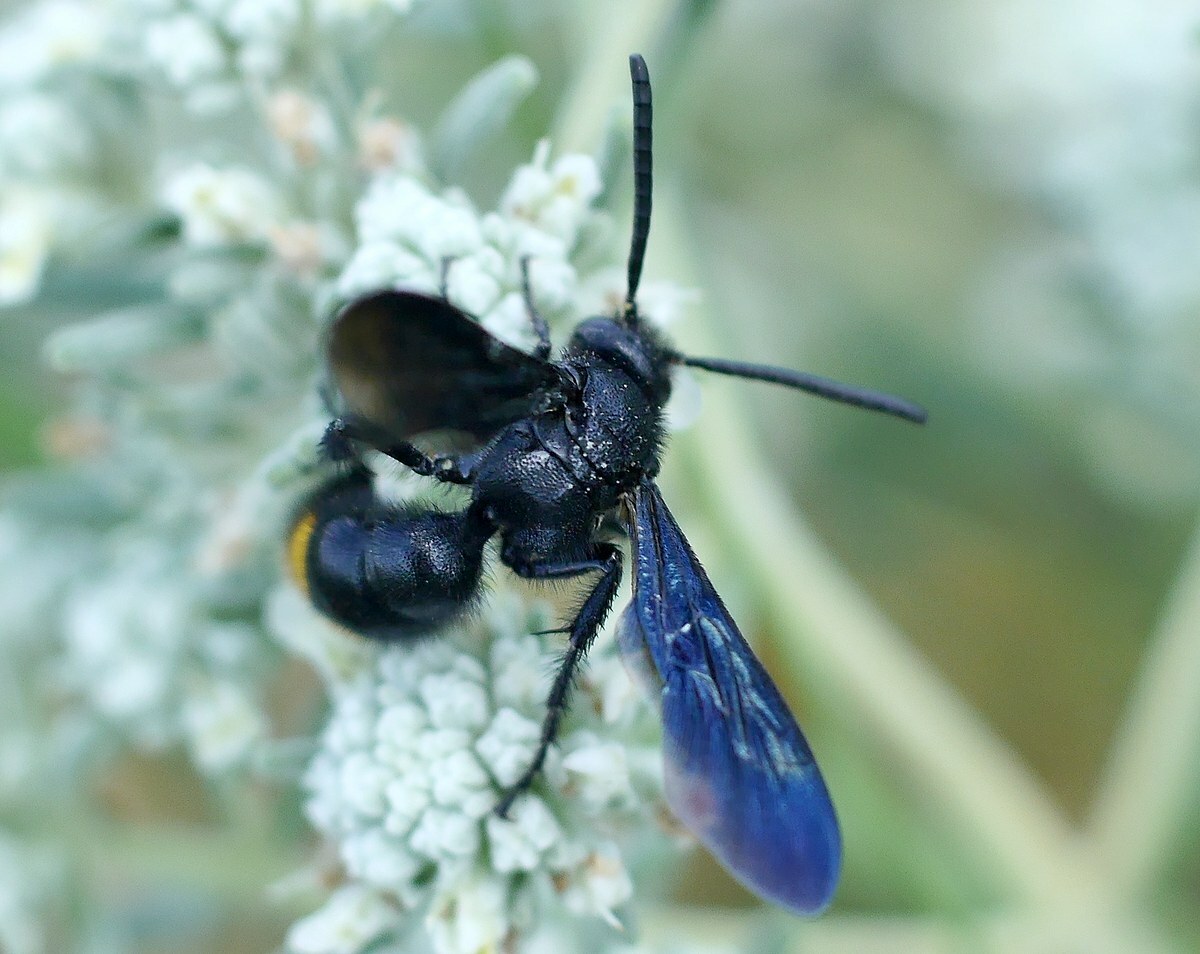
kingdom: Animalia
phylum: Arthropoda
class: Insecta
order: Hymenoptera
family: Scoliidae
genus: Scolia
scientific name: Scolia fallax
